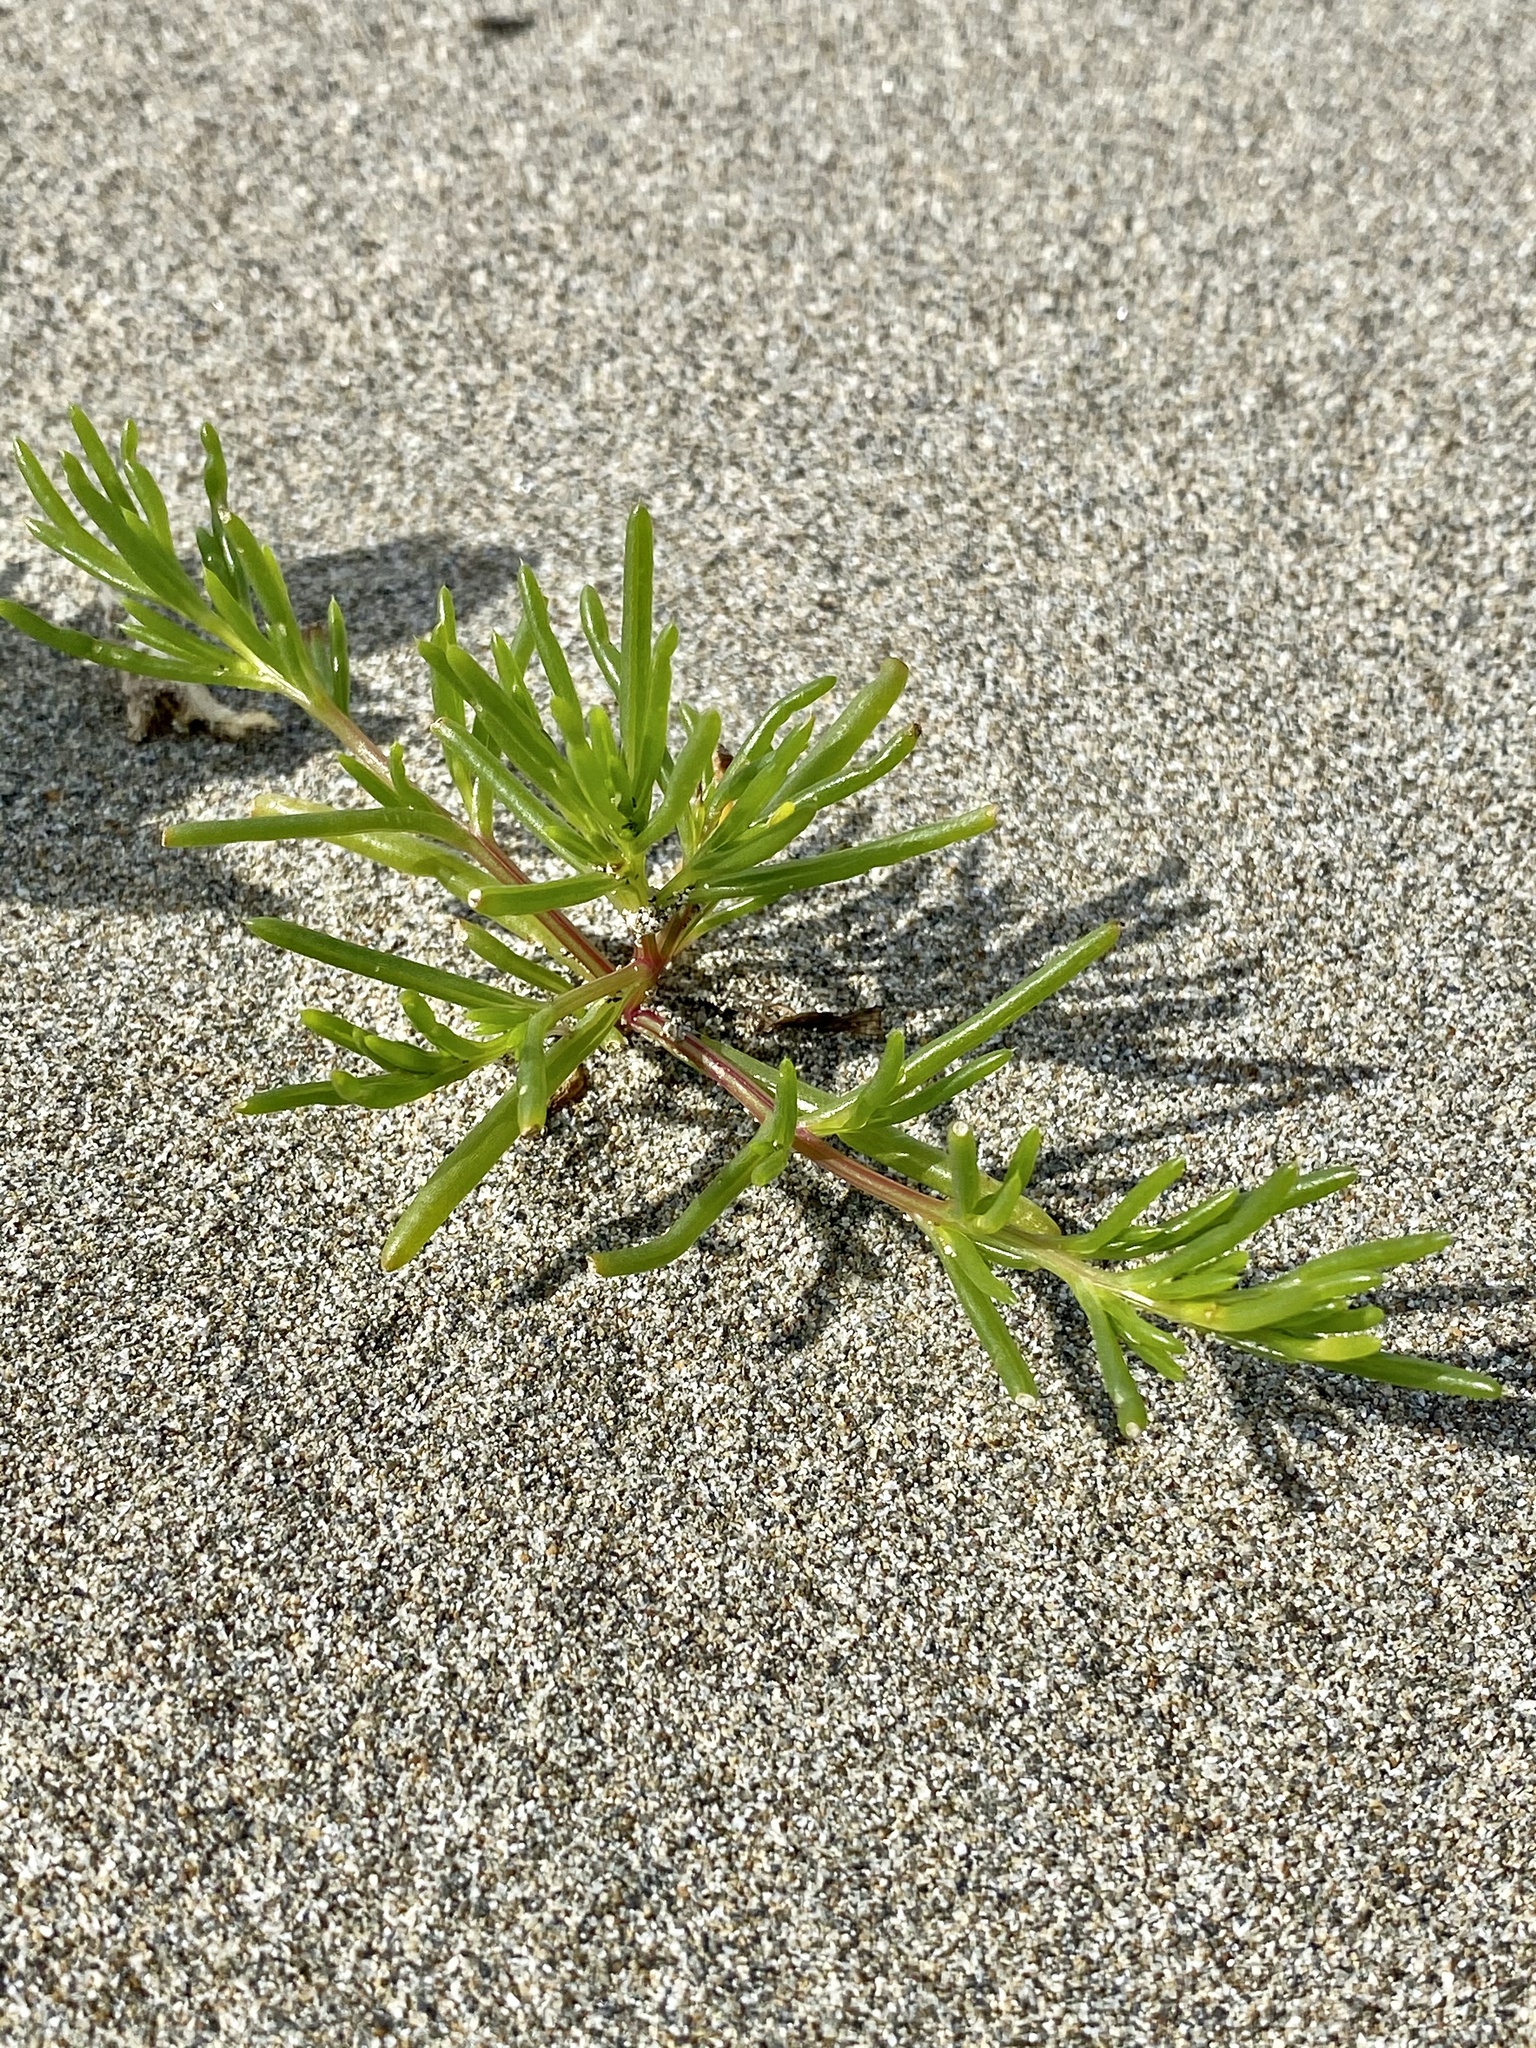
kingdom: Plantae
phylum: Tracheophyta
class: Magnoliopsida
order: Caryophyllales
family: Amaranthaceae
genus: Salsola
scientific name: Salsola komarovii
